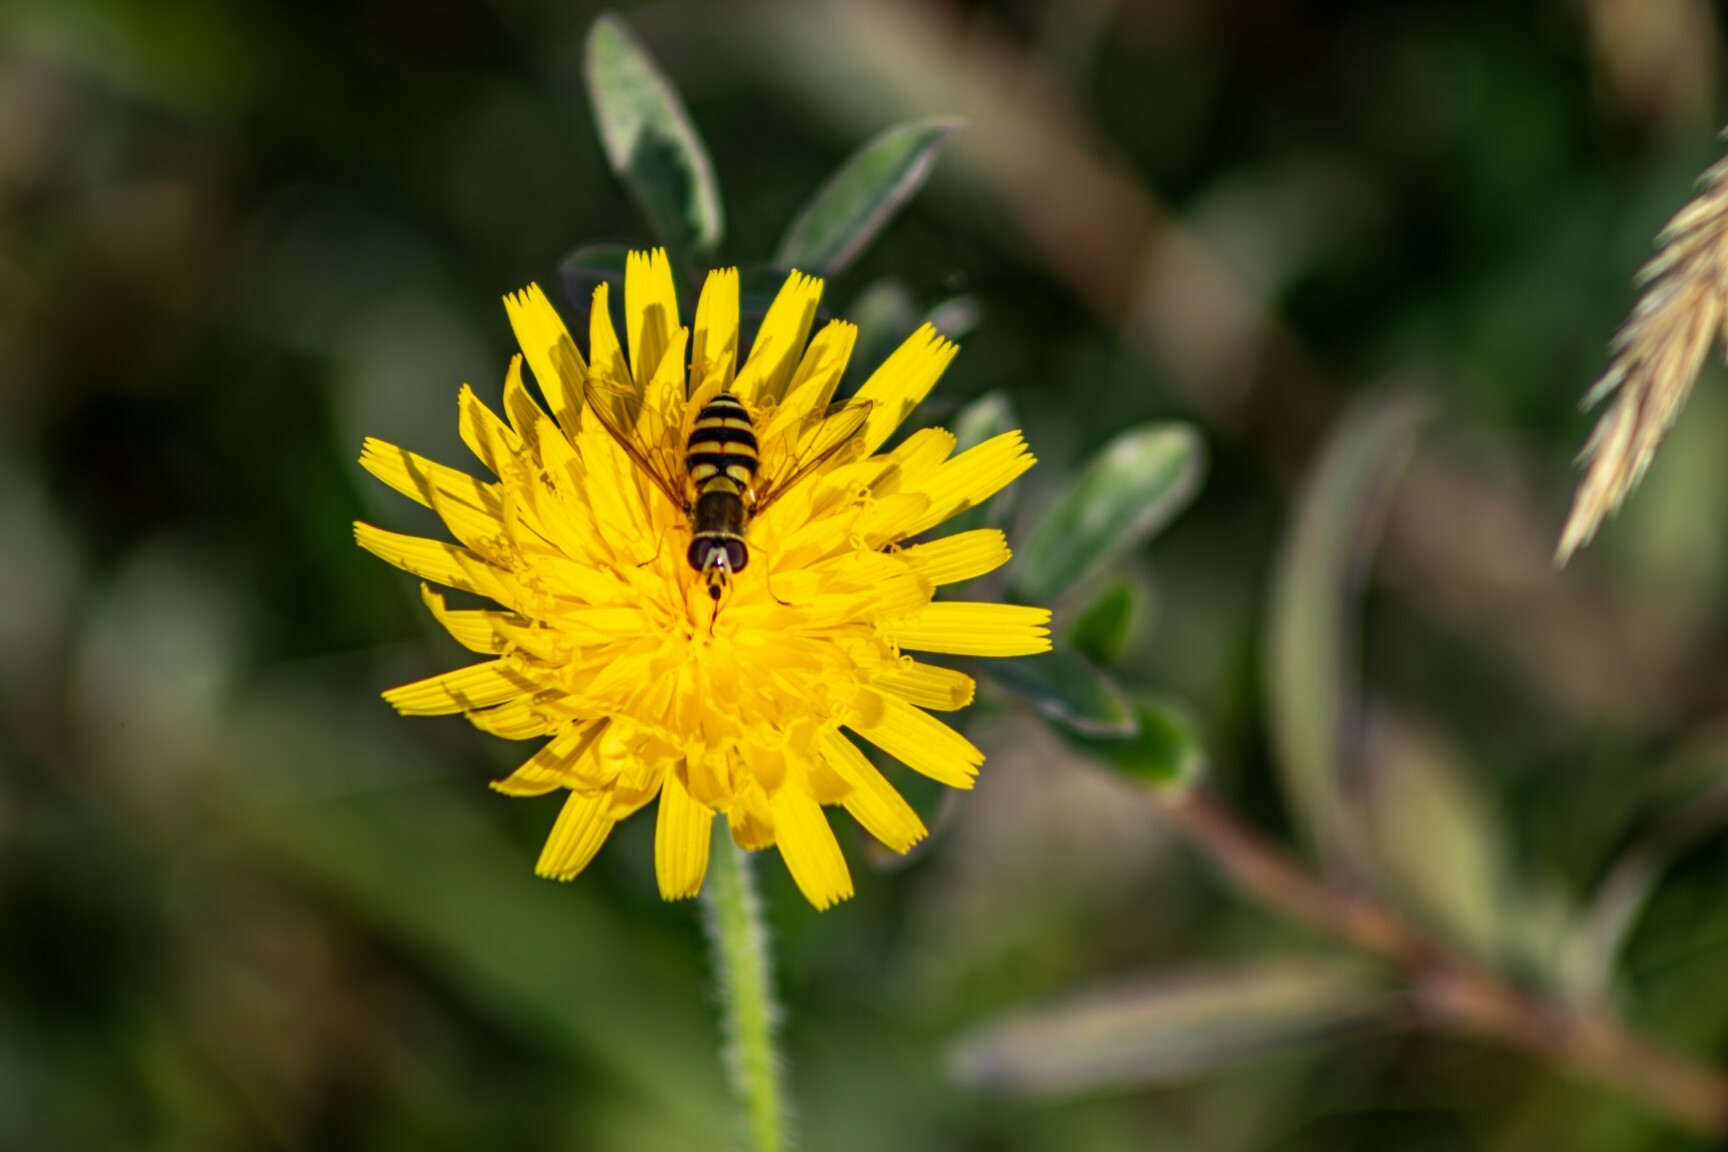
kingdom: Animalia
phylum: Arthropoda
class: Insecta
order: Diptera
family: Syrphidae
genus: Syrphus
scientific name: Syrphus
